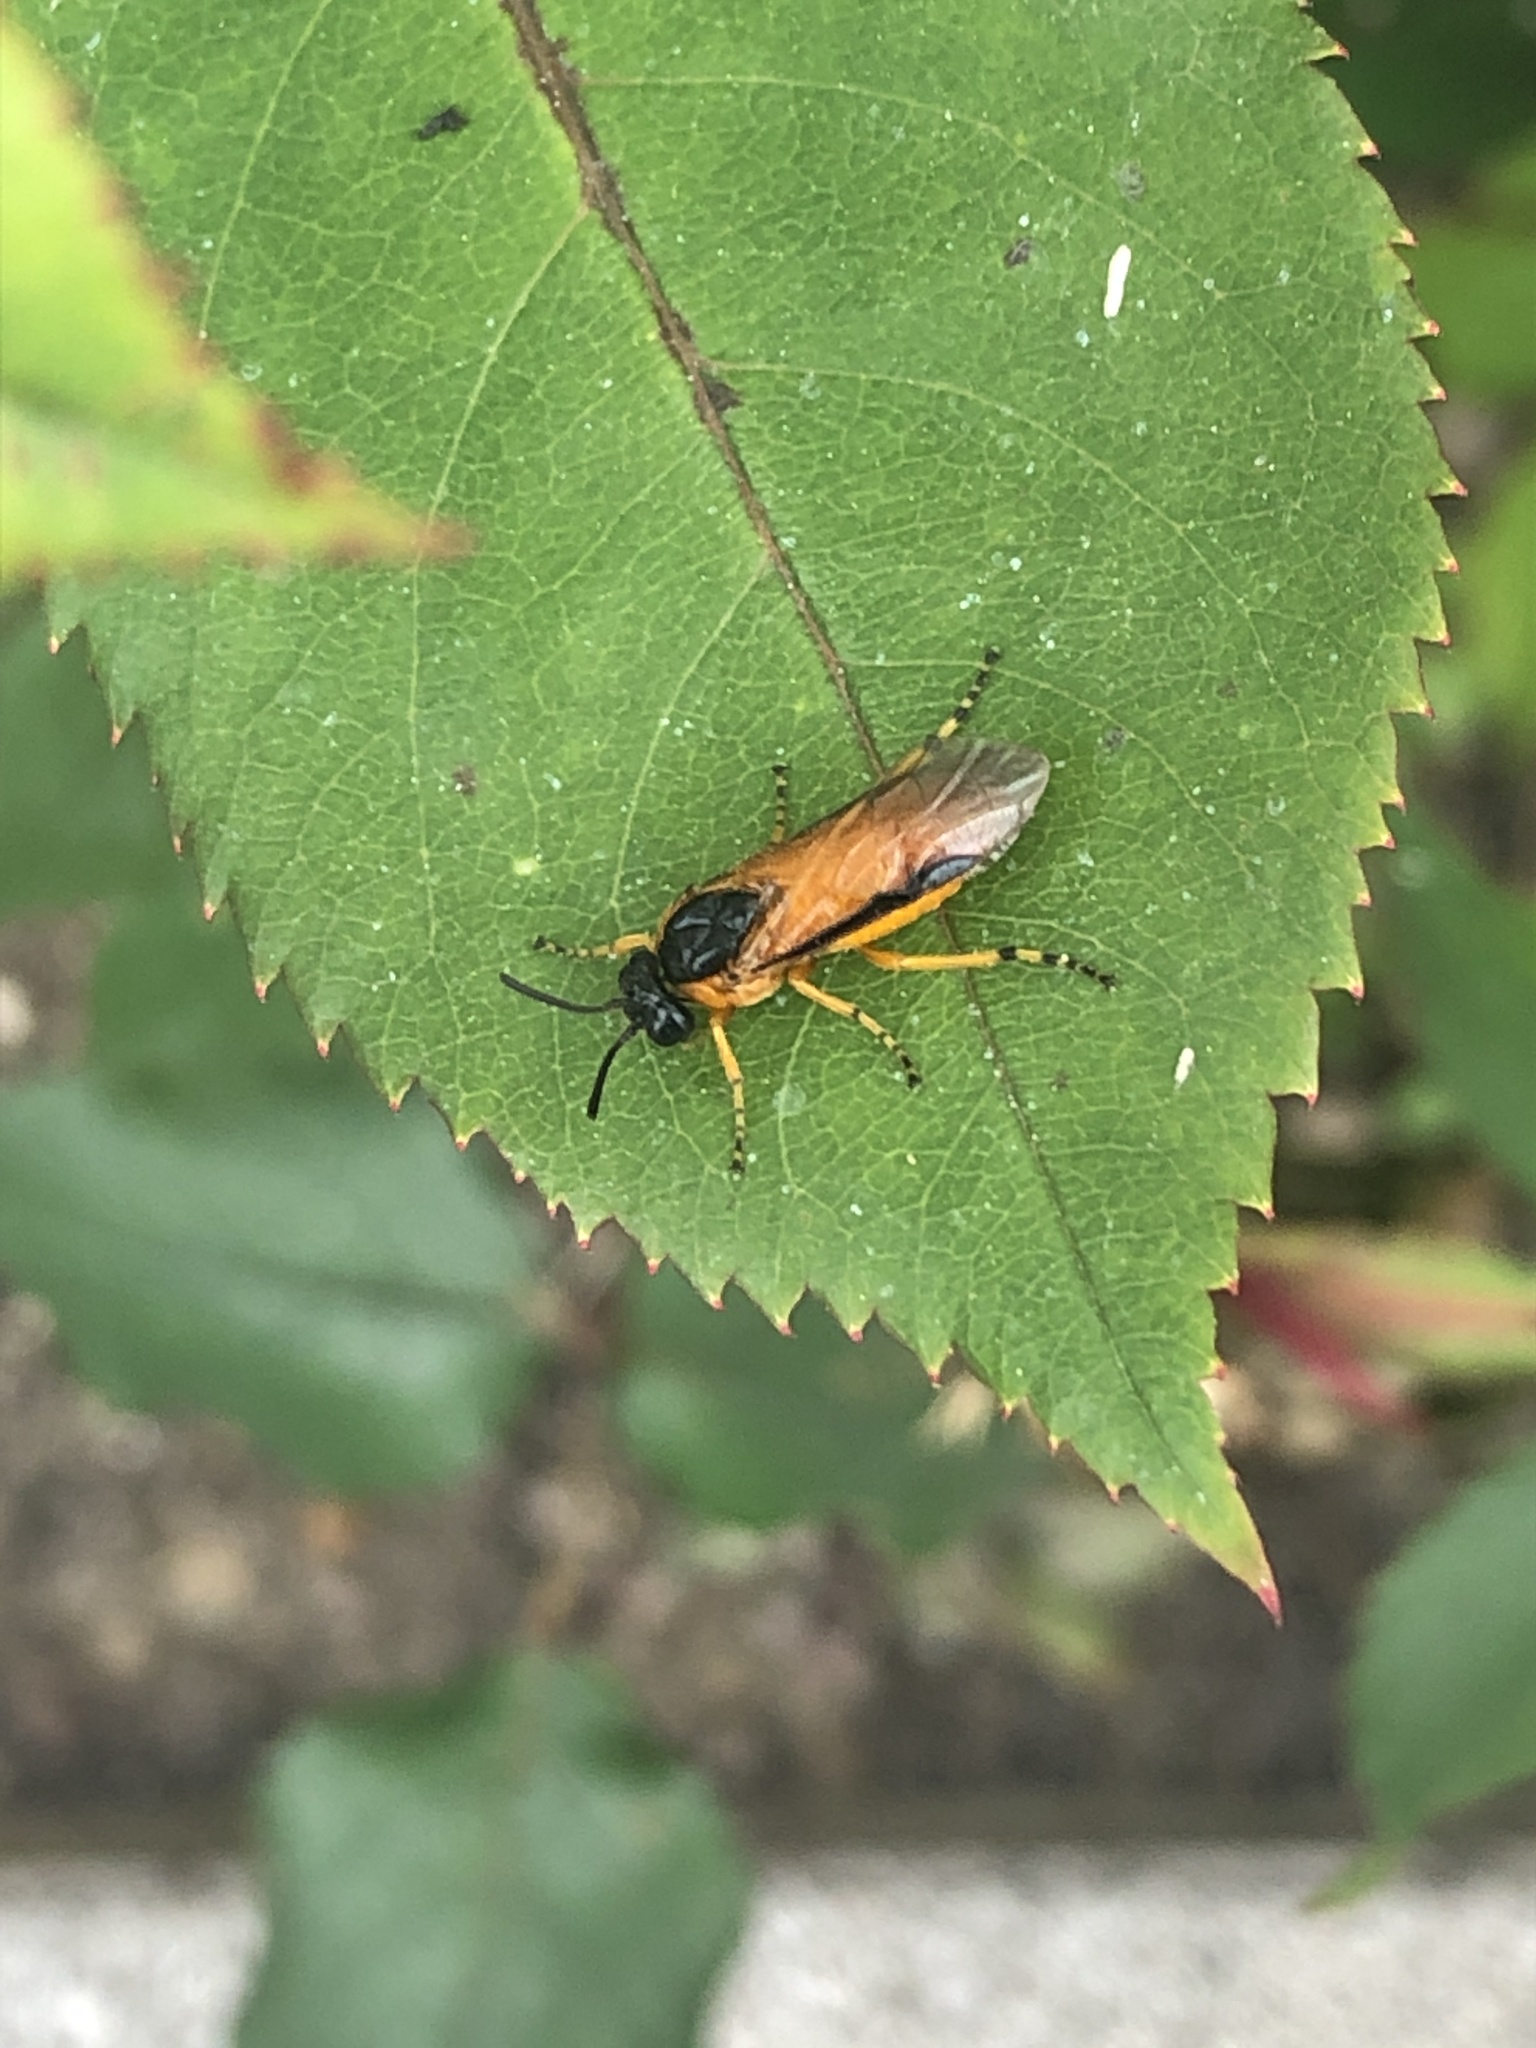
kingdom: Animalia
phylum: Arthropoda
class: Insecta
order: Hymenoptera
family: Argidae
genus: Arge
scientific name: Arge ochropus
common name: Argid sawfly
